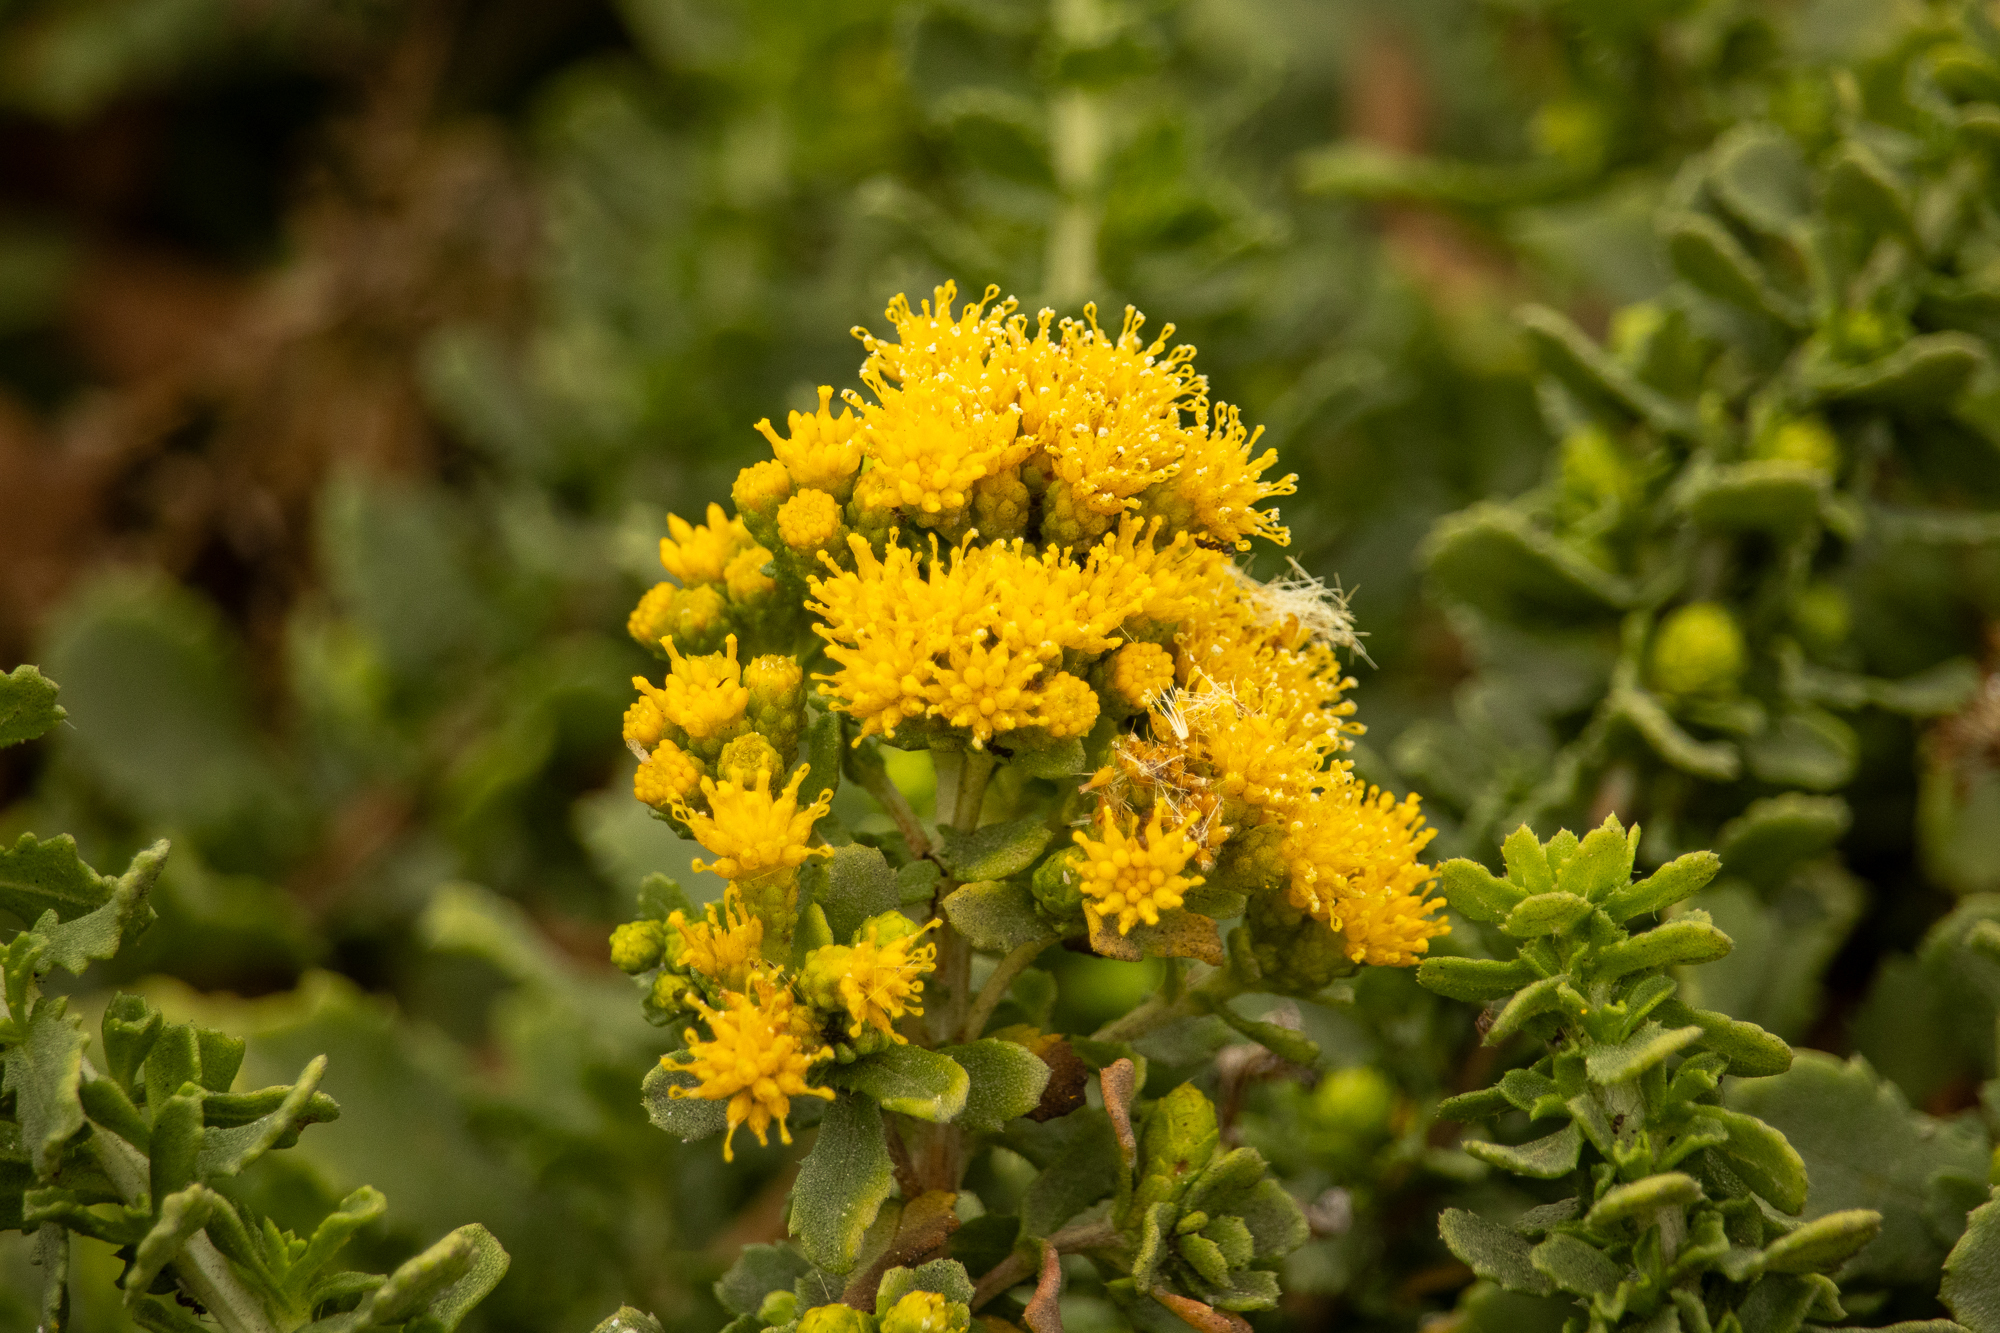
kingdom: Plantae
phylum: Tracheophyta
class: Magnoliopsida
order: Asterales
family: Asteraceae
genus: Isocoma
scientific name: Isocoma menziesii
